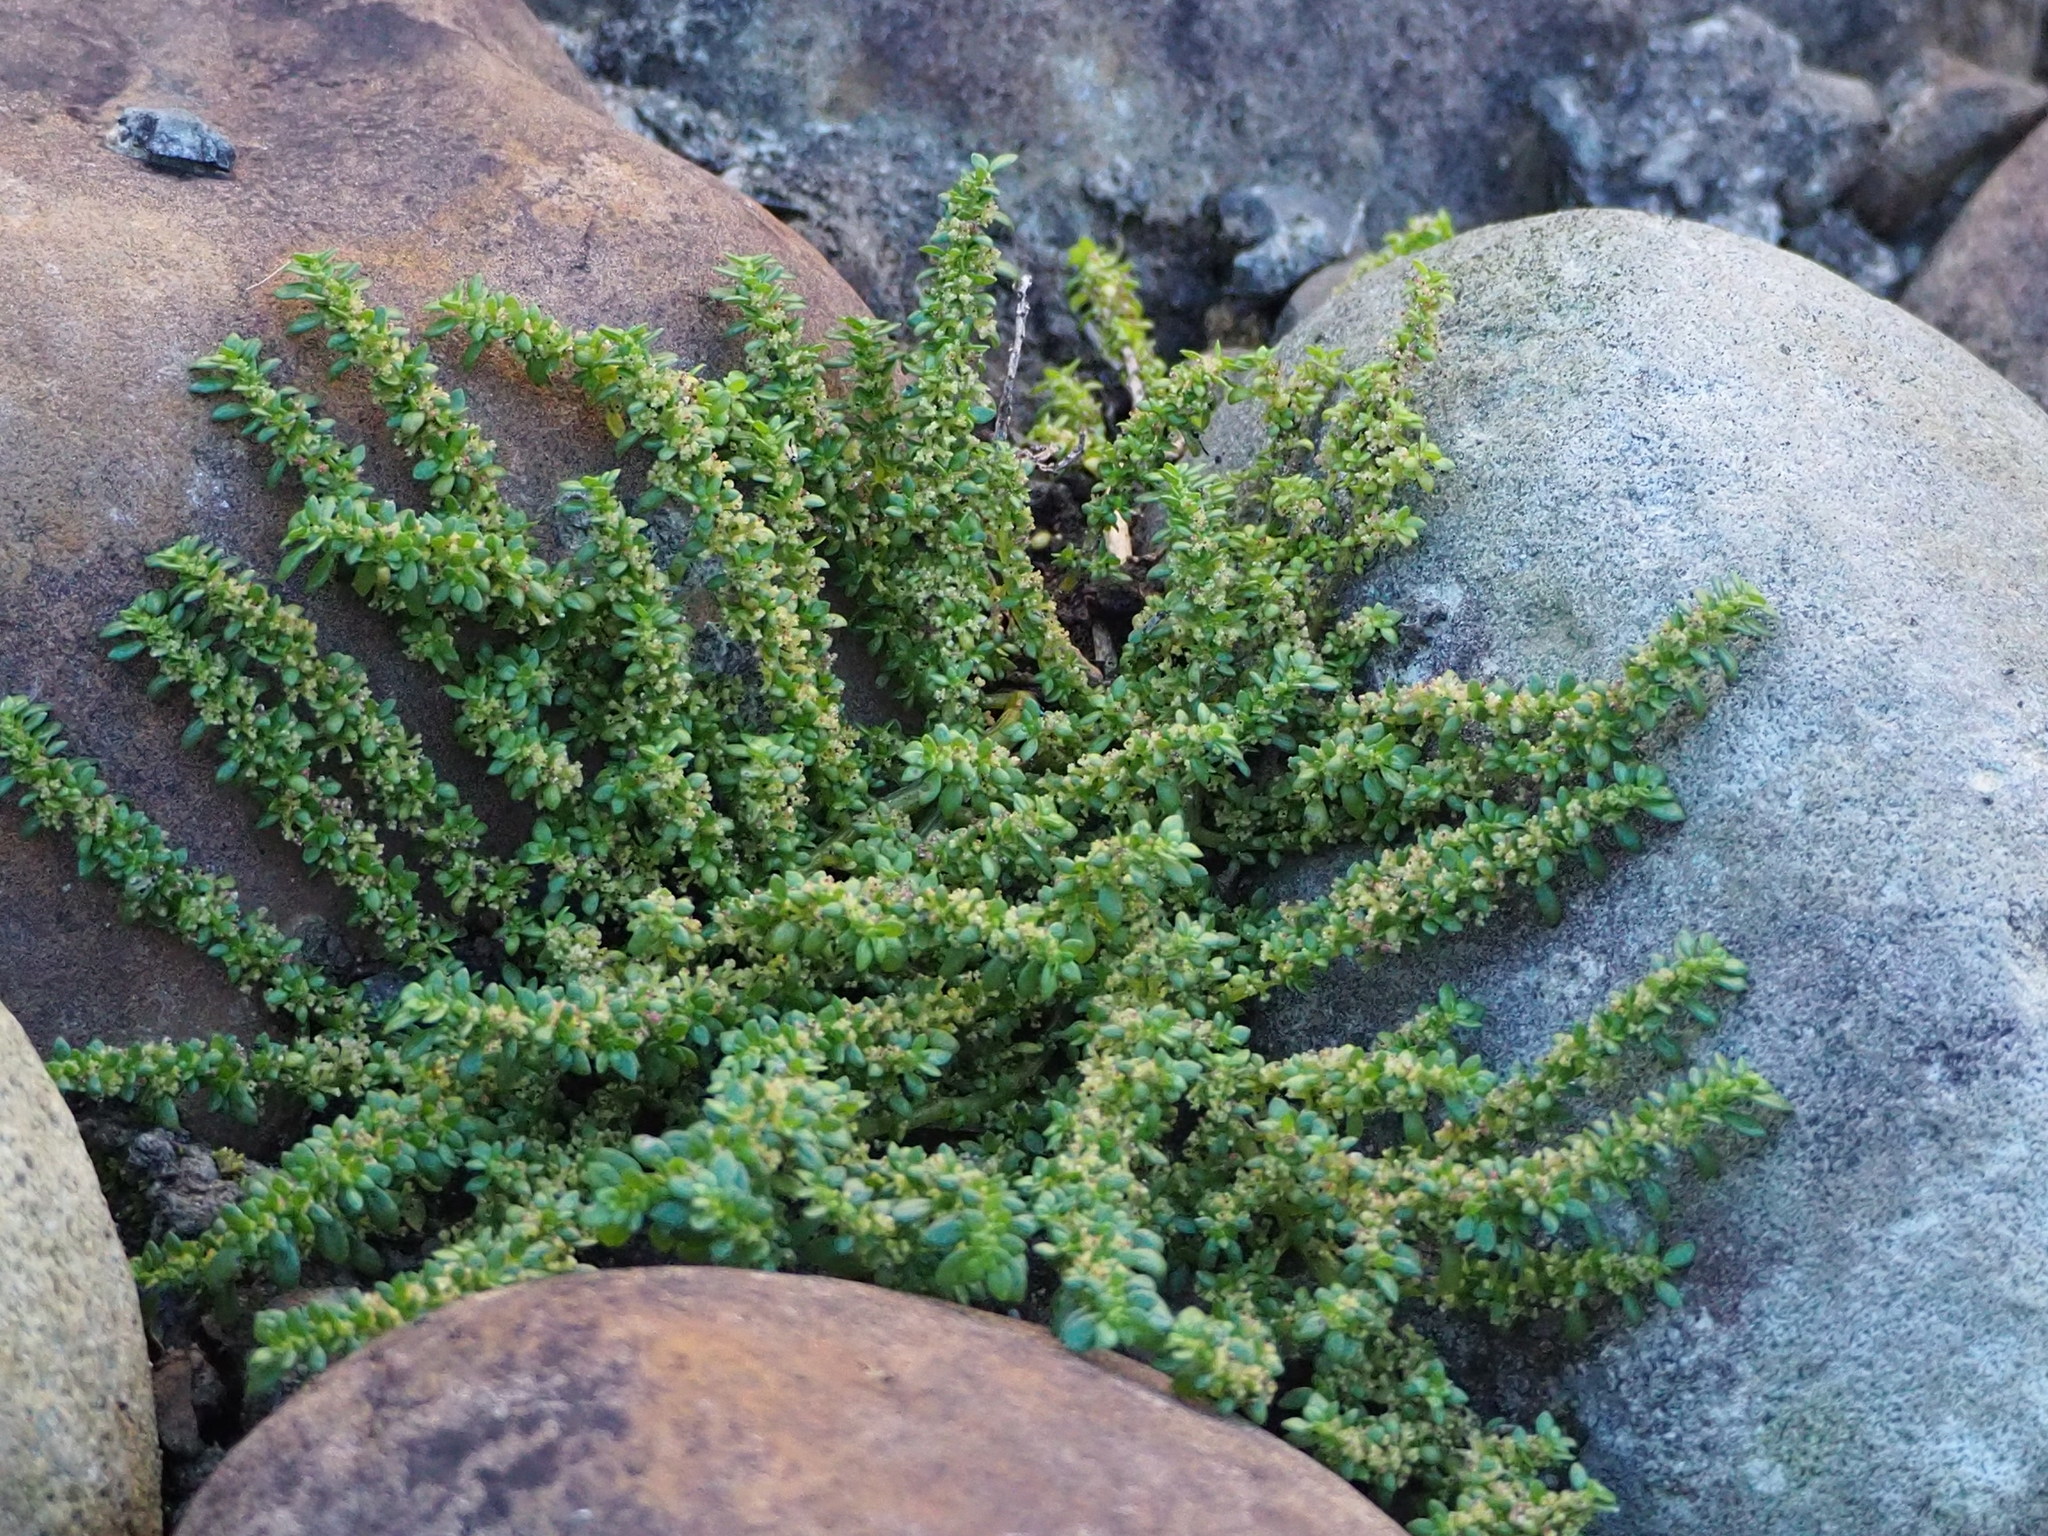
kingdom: Plantae
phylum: Tracheophyta
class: Magnoliopsida
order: Rosales
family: Urticaceae
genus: Pilea
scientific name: Pilea microphylla
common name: Artillery-plant
